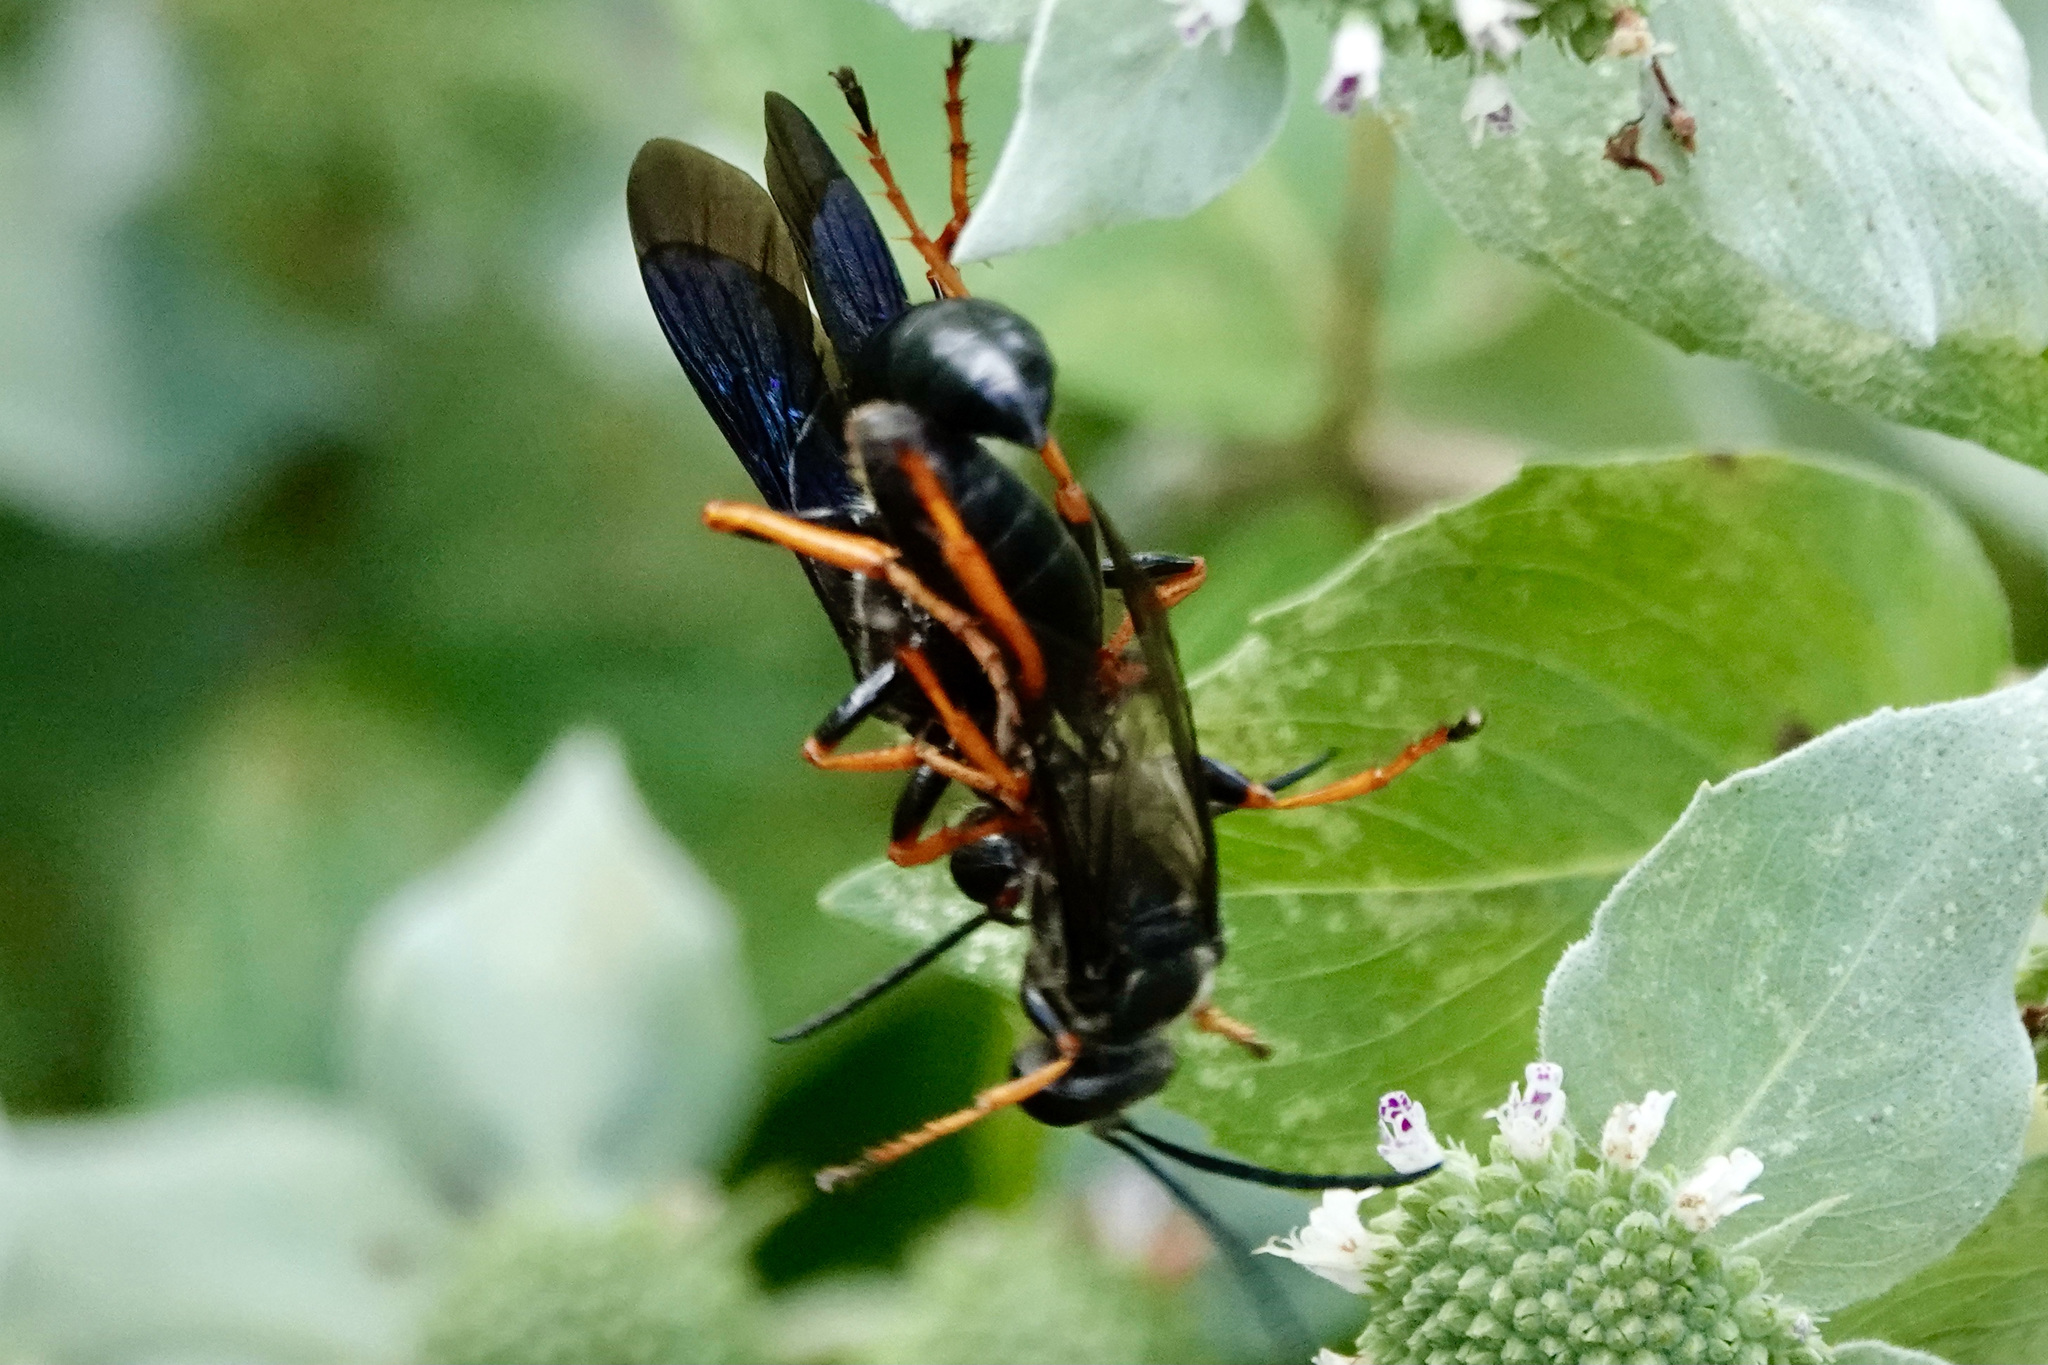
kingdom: Animalia
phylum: Arthropoda
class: Insecta
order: Hymenoptera
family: Sphecidae
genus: Sphex
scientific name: Sphex nudus
